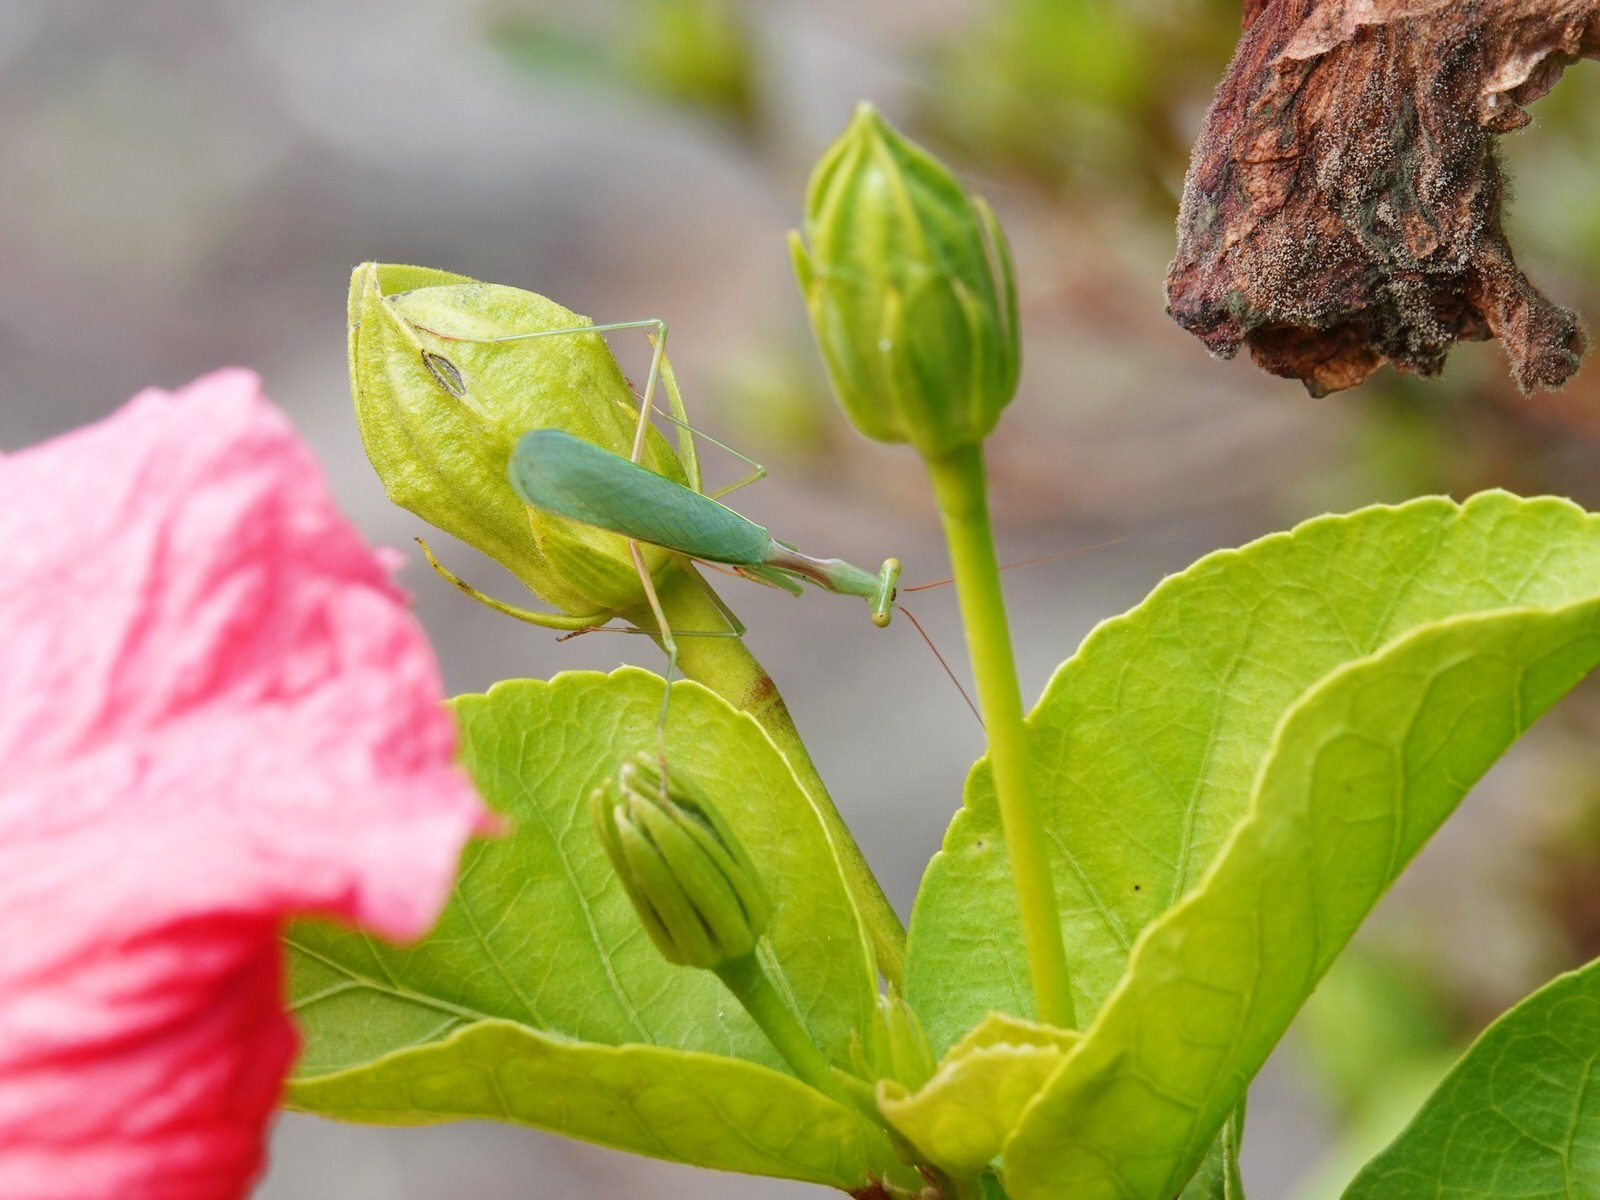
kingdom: Animalia
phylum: Arthropoda
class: Insecta
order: Mantodea
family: Miomantidae
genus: Miomantis
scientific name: Miomantis caffra
